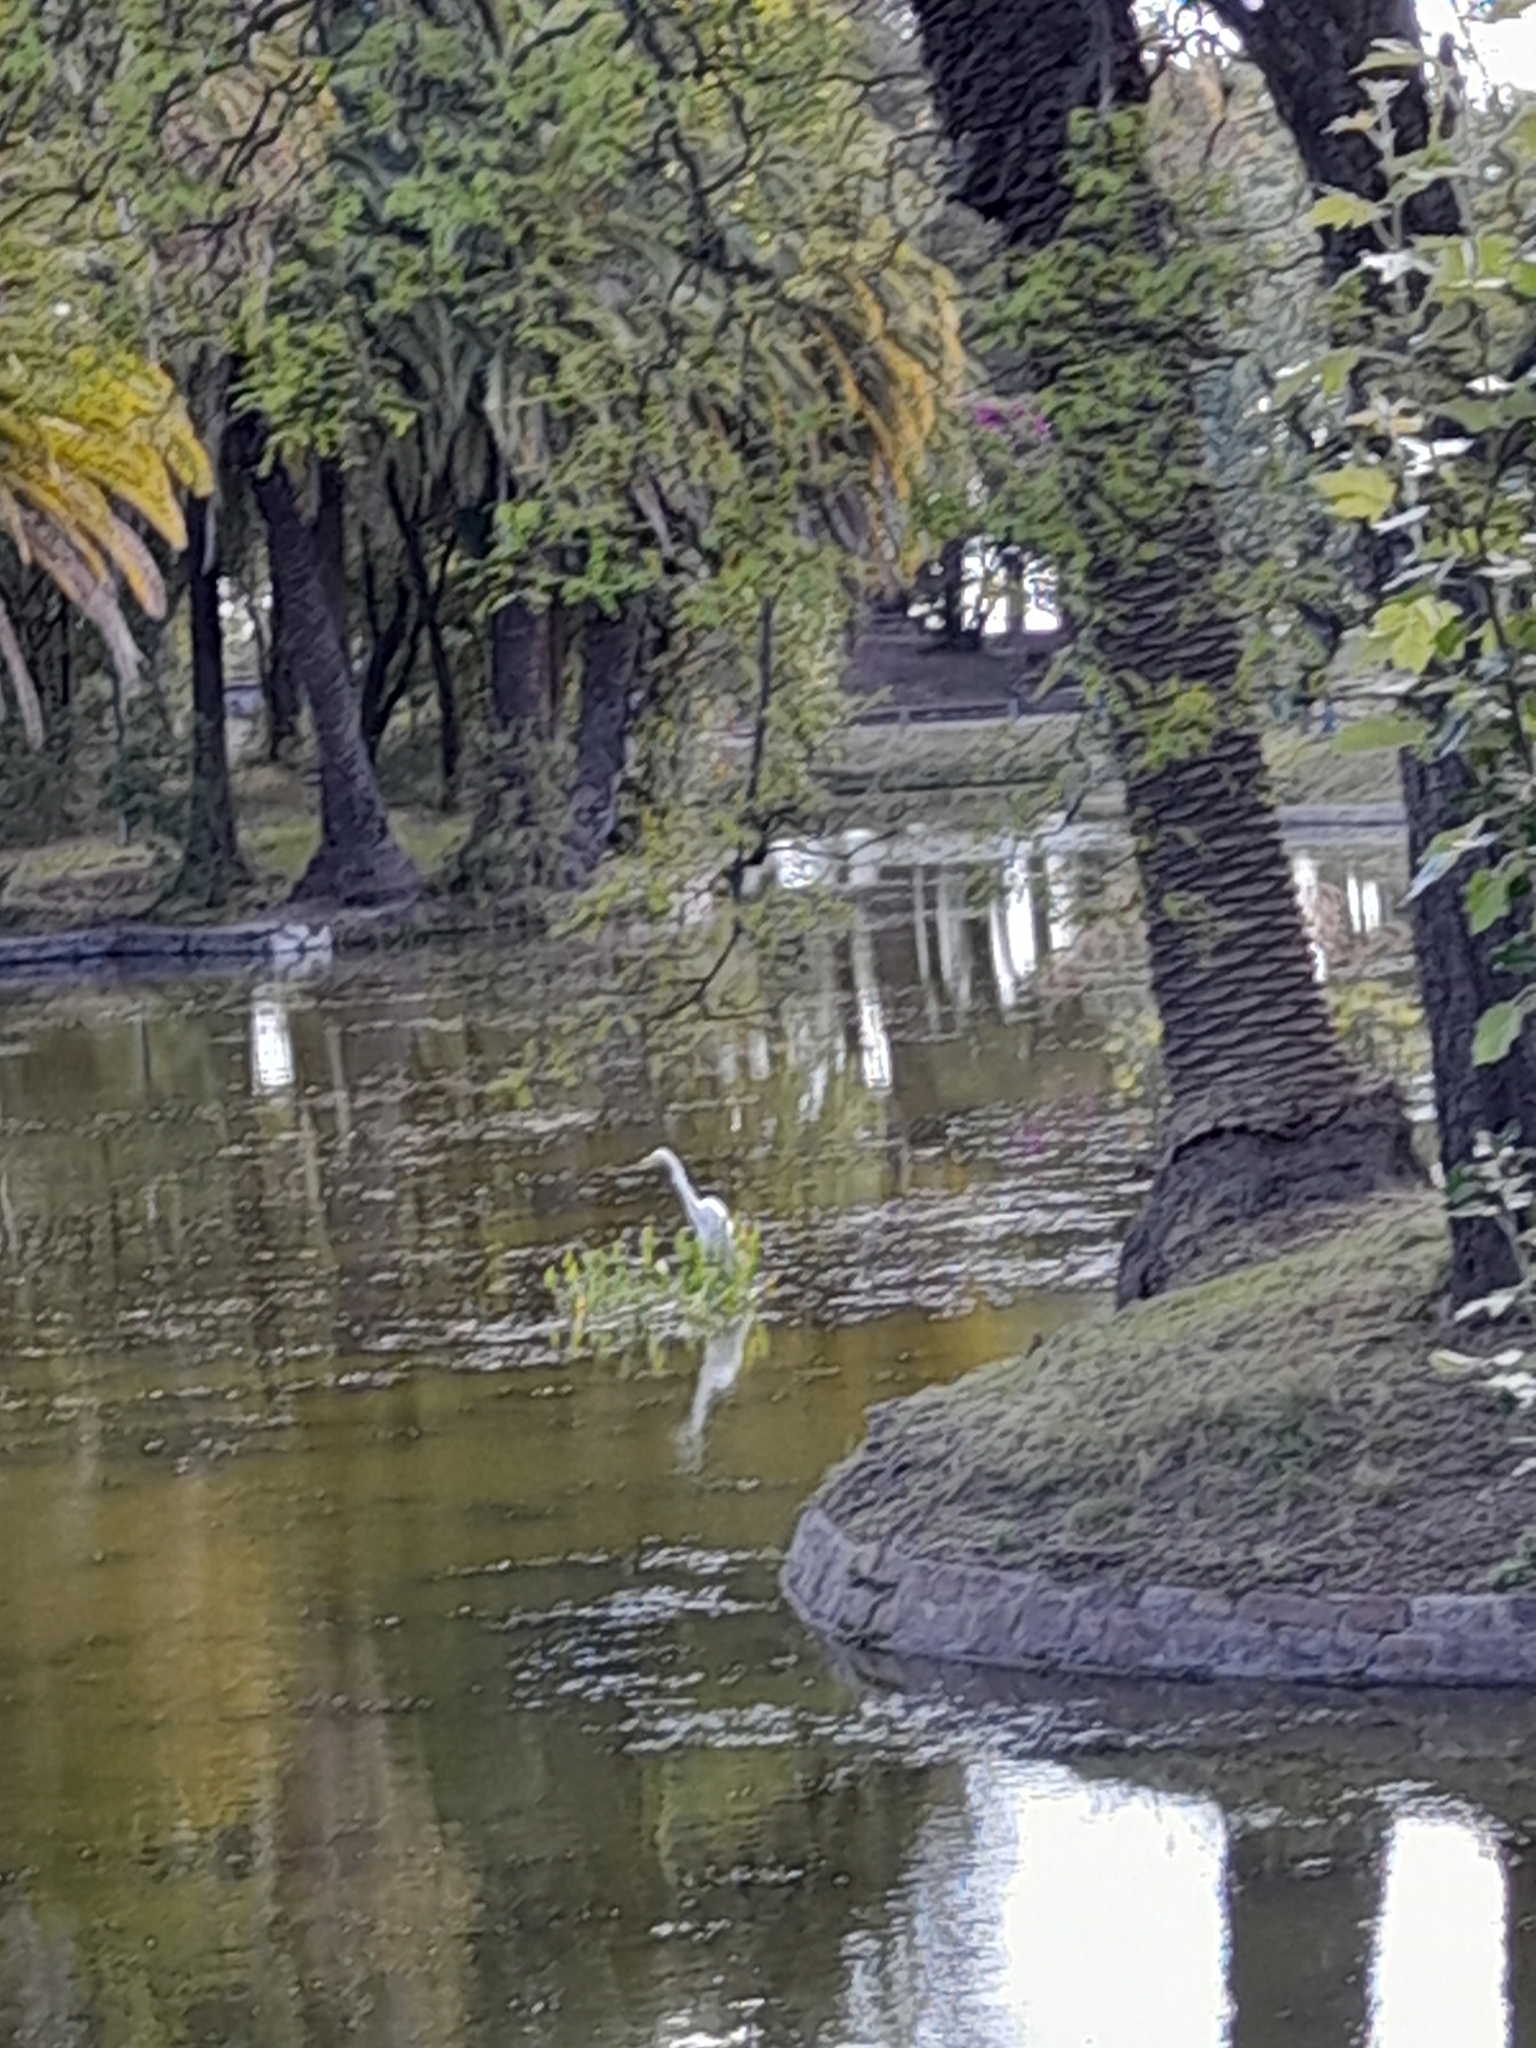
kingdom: Animalia
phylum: Chordata
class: Aves
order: Pelecaniformes
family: Ardeidae
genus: Ardea
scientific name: Ardea alba
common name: Great egret
